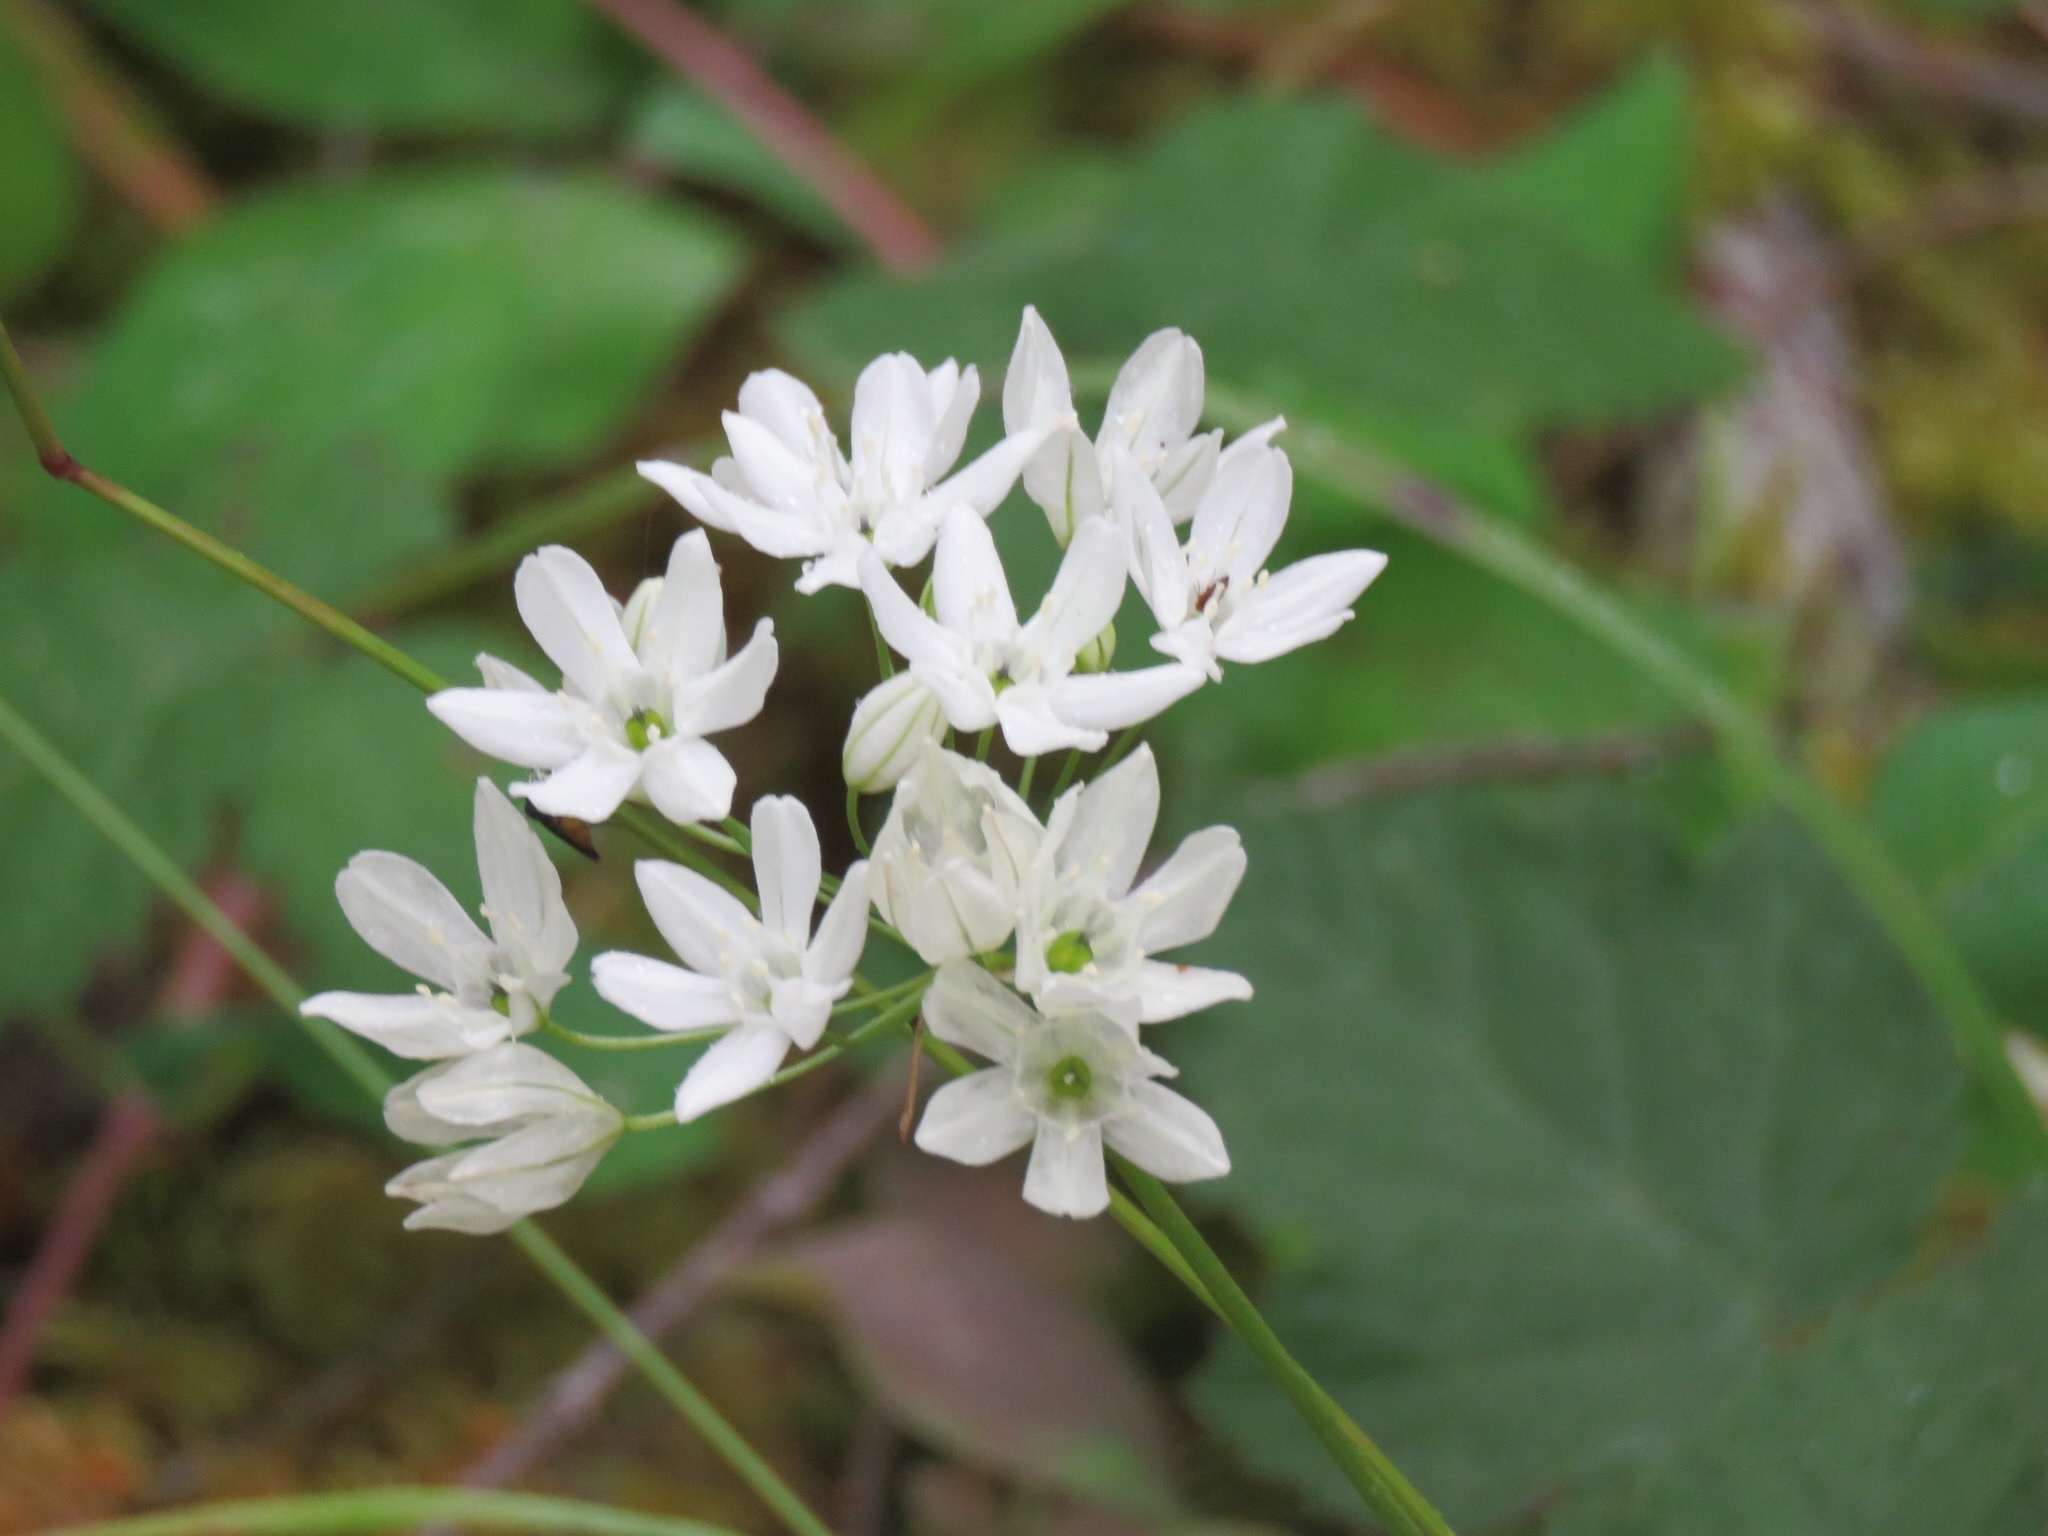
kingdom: Plantae
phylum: Tracheophyta
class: Liliopsida
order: Asparagales
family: Asparagaceae
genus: Triteleia
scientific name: Triteleia hyacinthina
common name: White brodiaea
